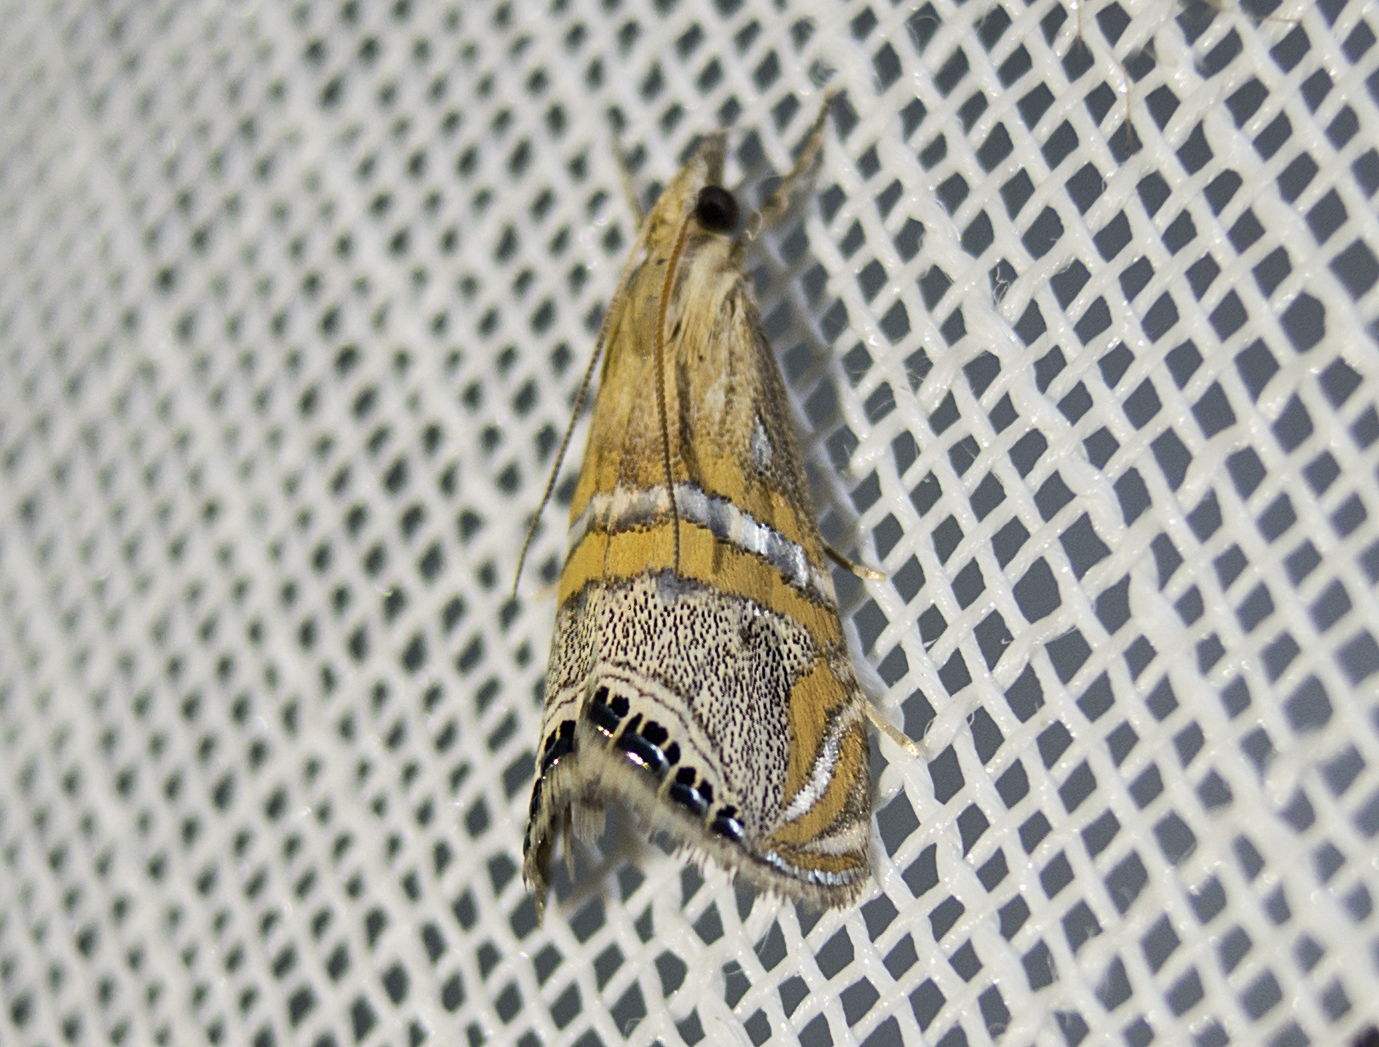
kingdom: Animalia
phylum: Arthropoda
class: Insecta
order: Lepidoptera
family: Crambidae
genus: Euchromius
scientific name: Euchromius bella
